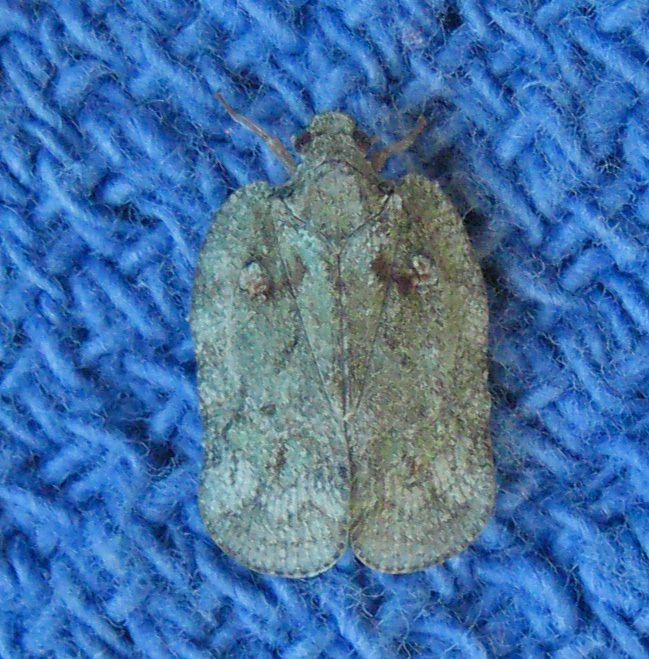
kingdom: Animalia
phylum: Arthropoda
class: Insecta
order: Hemiptera
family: Flatidae
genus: Flataloides
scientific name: Flataloides scabrosa
